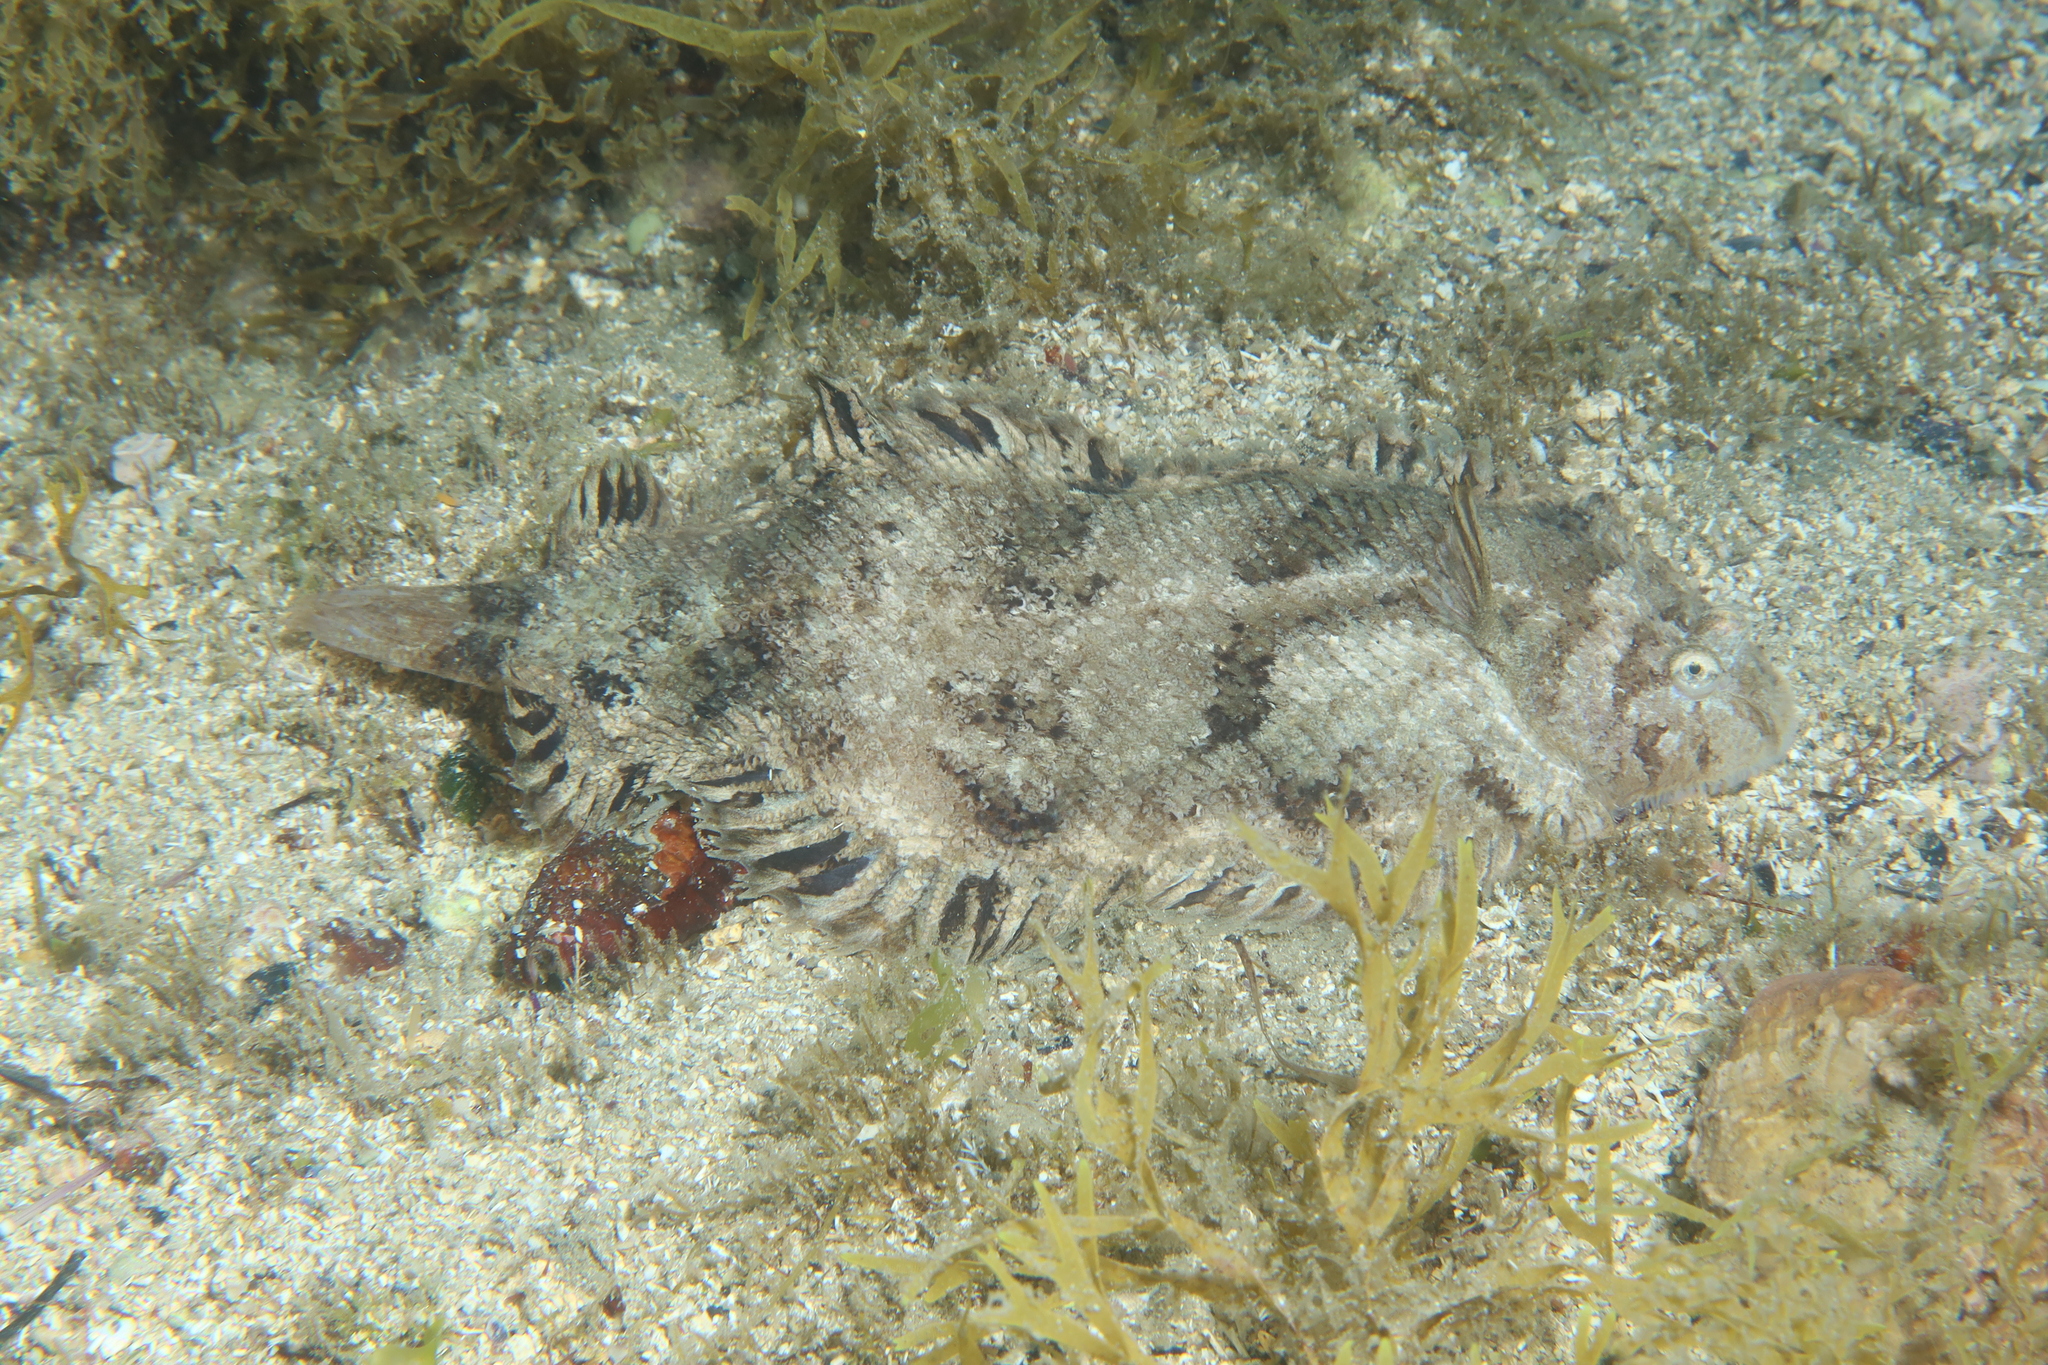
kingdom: Animalia
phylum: Chordata
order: Pleuronectiformes
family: Soleidae
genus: Monochirus
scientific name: Monochirus hispidus
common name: Whiskered sole
